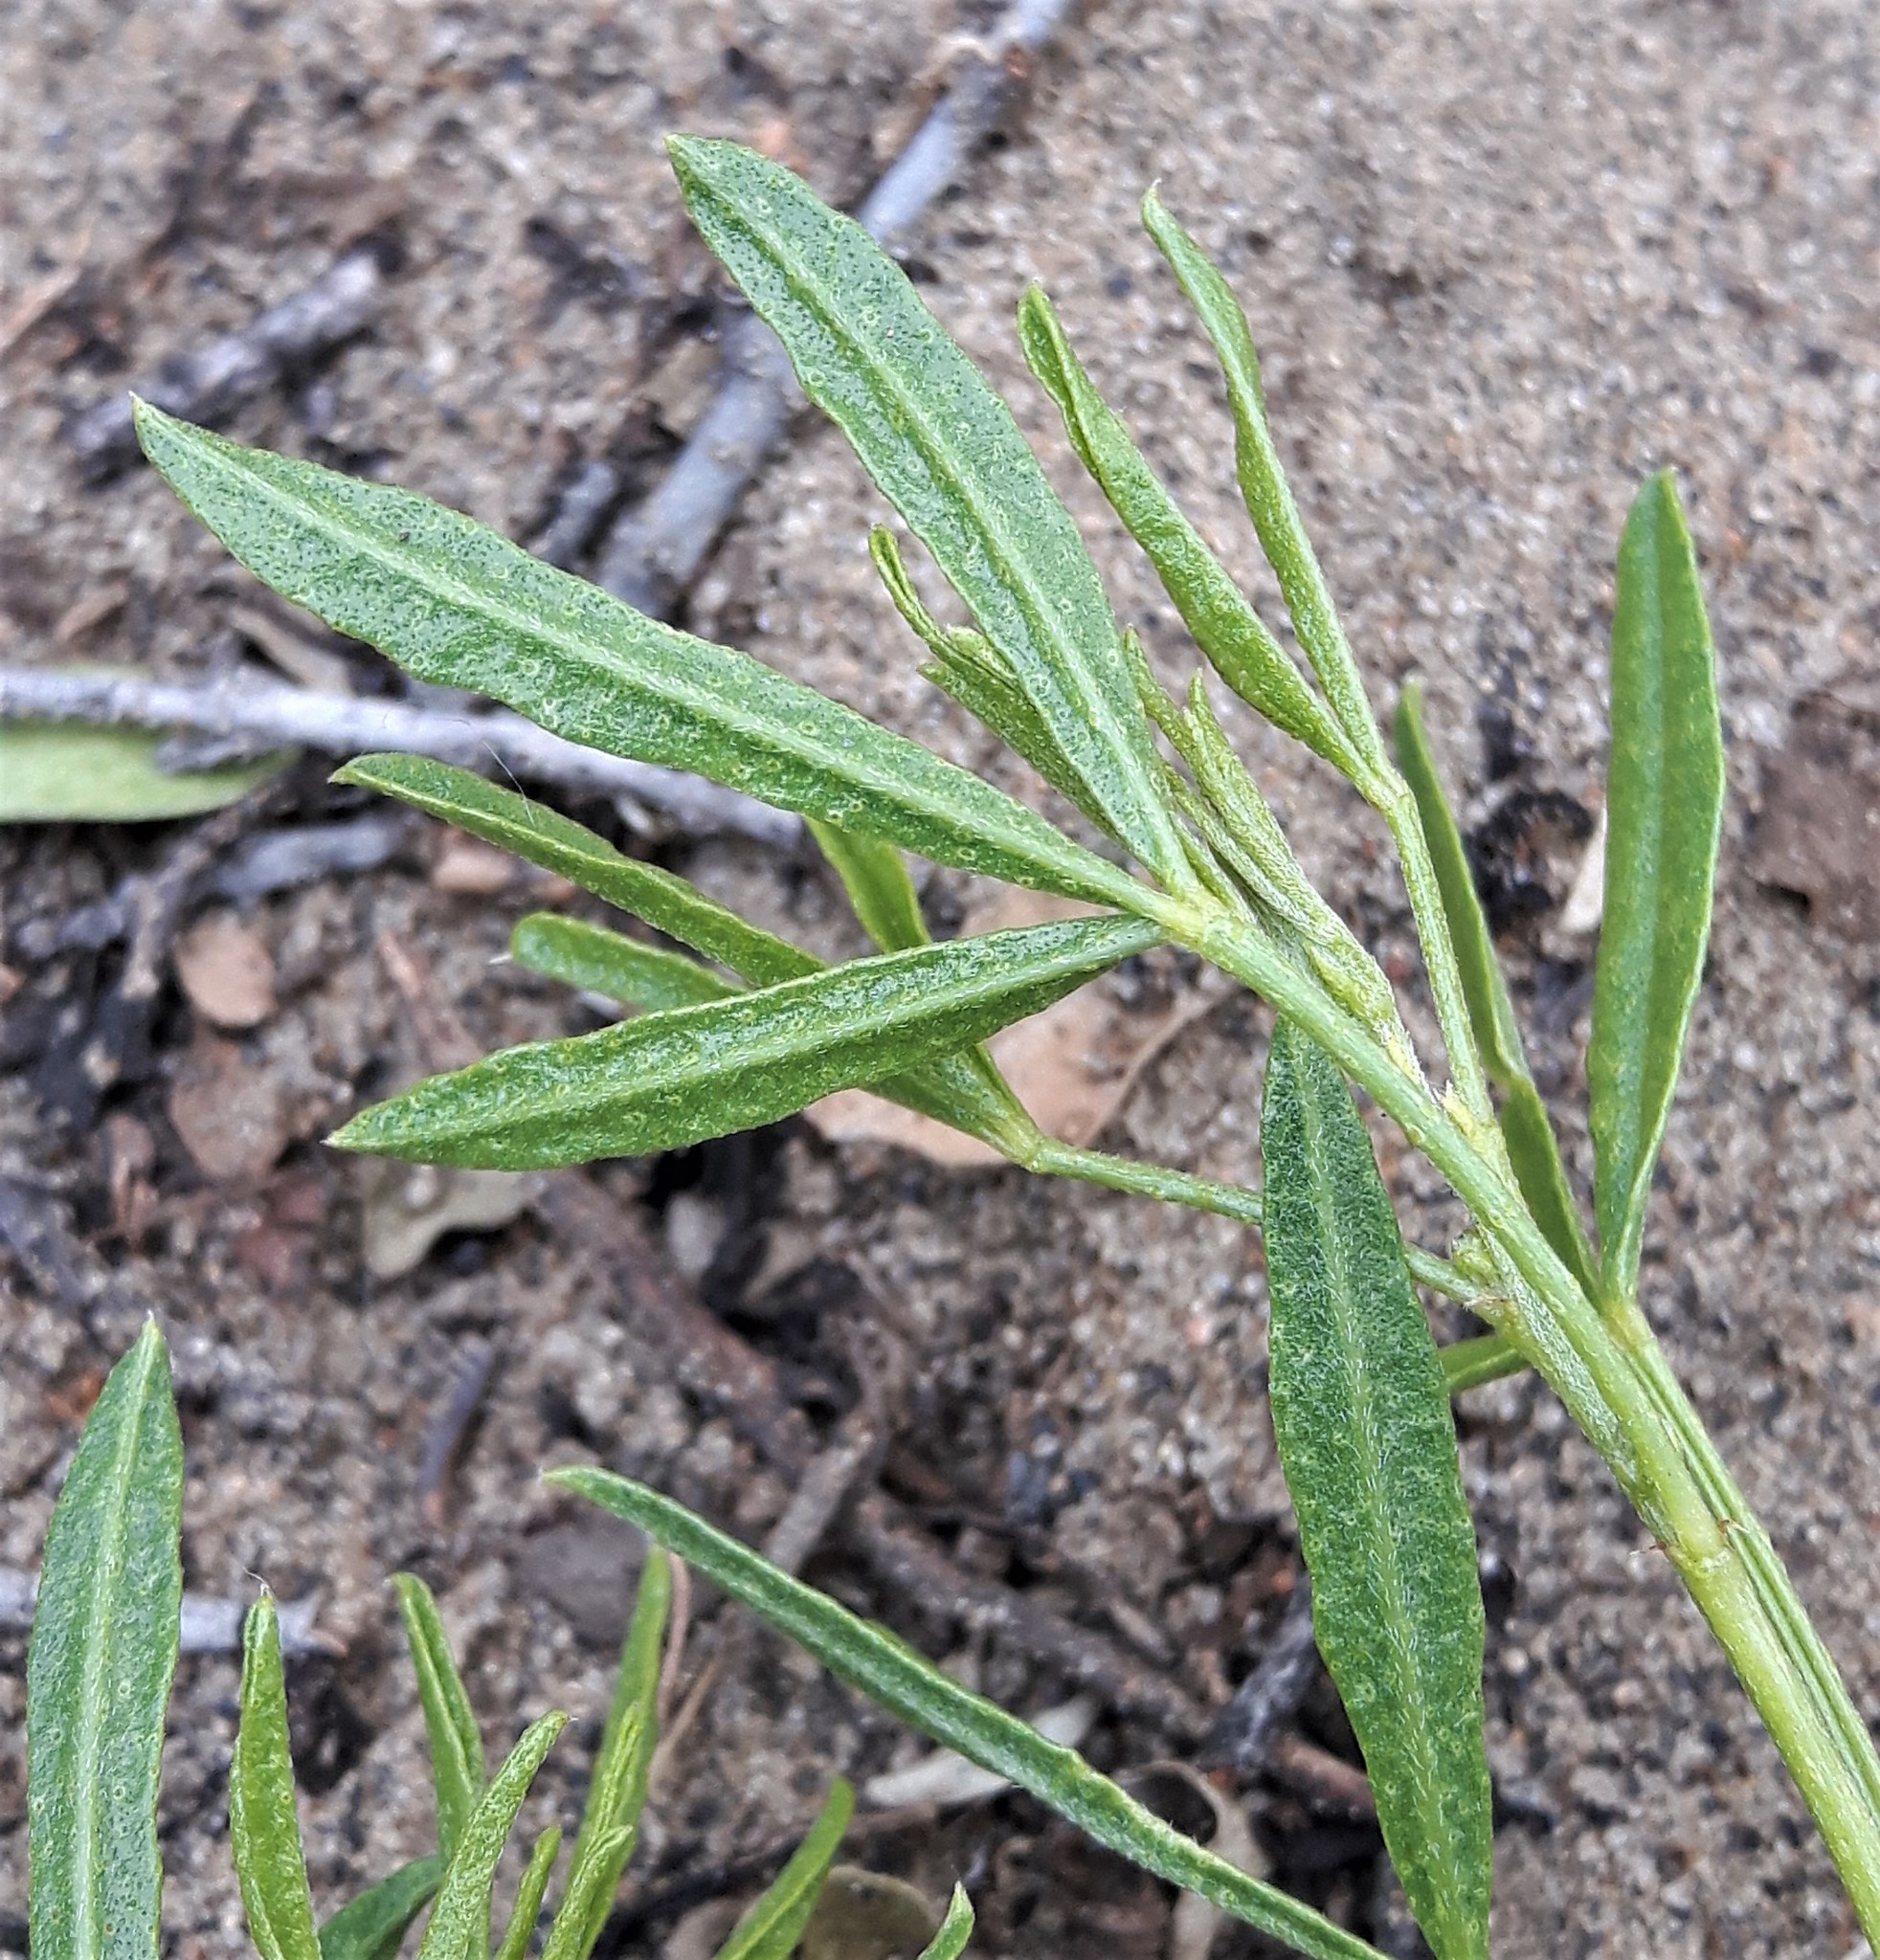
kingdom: Plantae
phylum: Tracheophyta
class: Magnoliopsida
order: Fabales
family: Fabaceae
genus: Ladeania
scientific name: Ladeania lanceolata
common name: Dune scurf-pea
